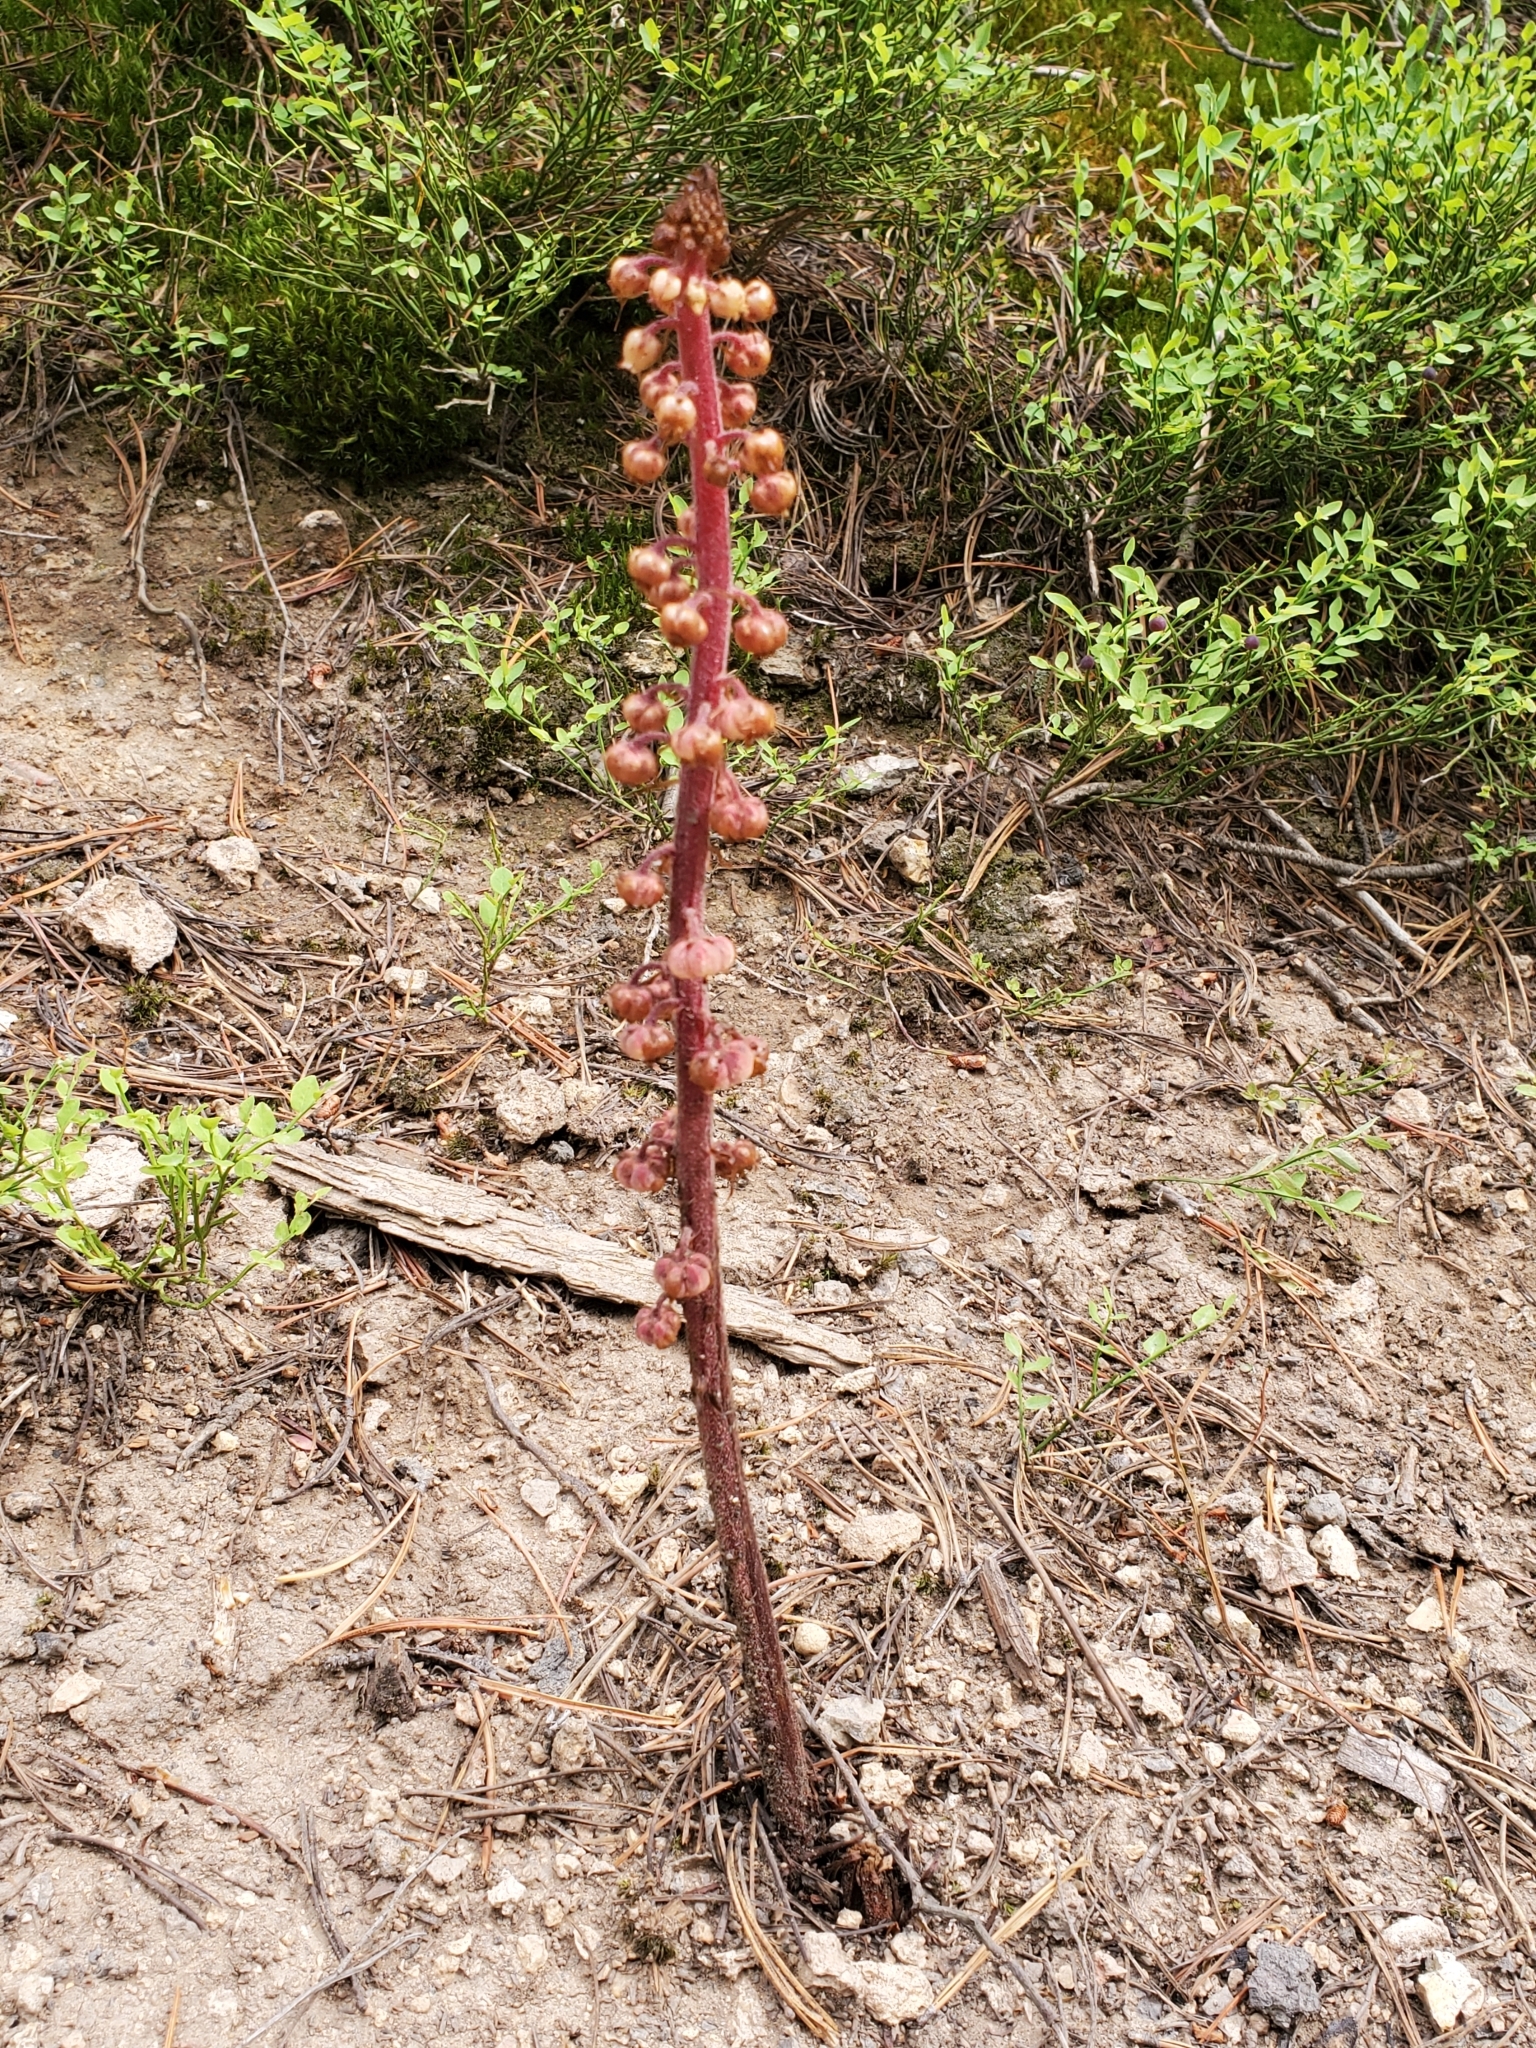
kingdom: Plantae
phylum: Tracheophyta
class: Magnoliopsida
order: Ericales
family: Ericaceae
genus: Pterospora
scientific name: Pterospora andromedea
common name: Giant bird's-nest
